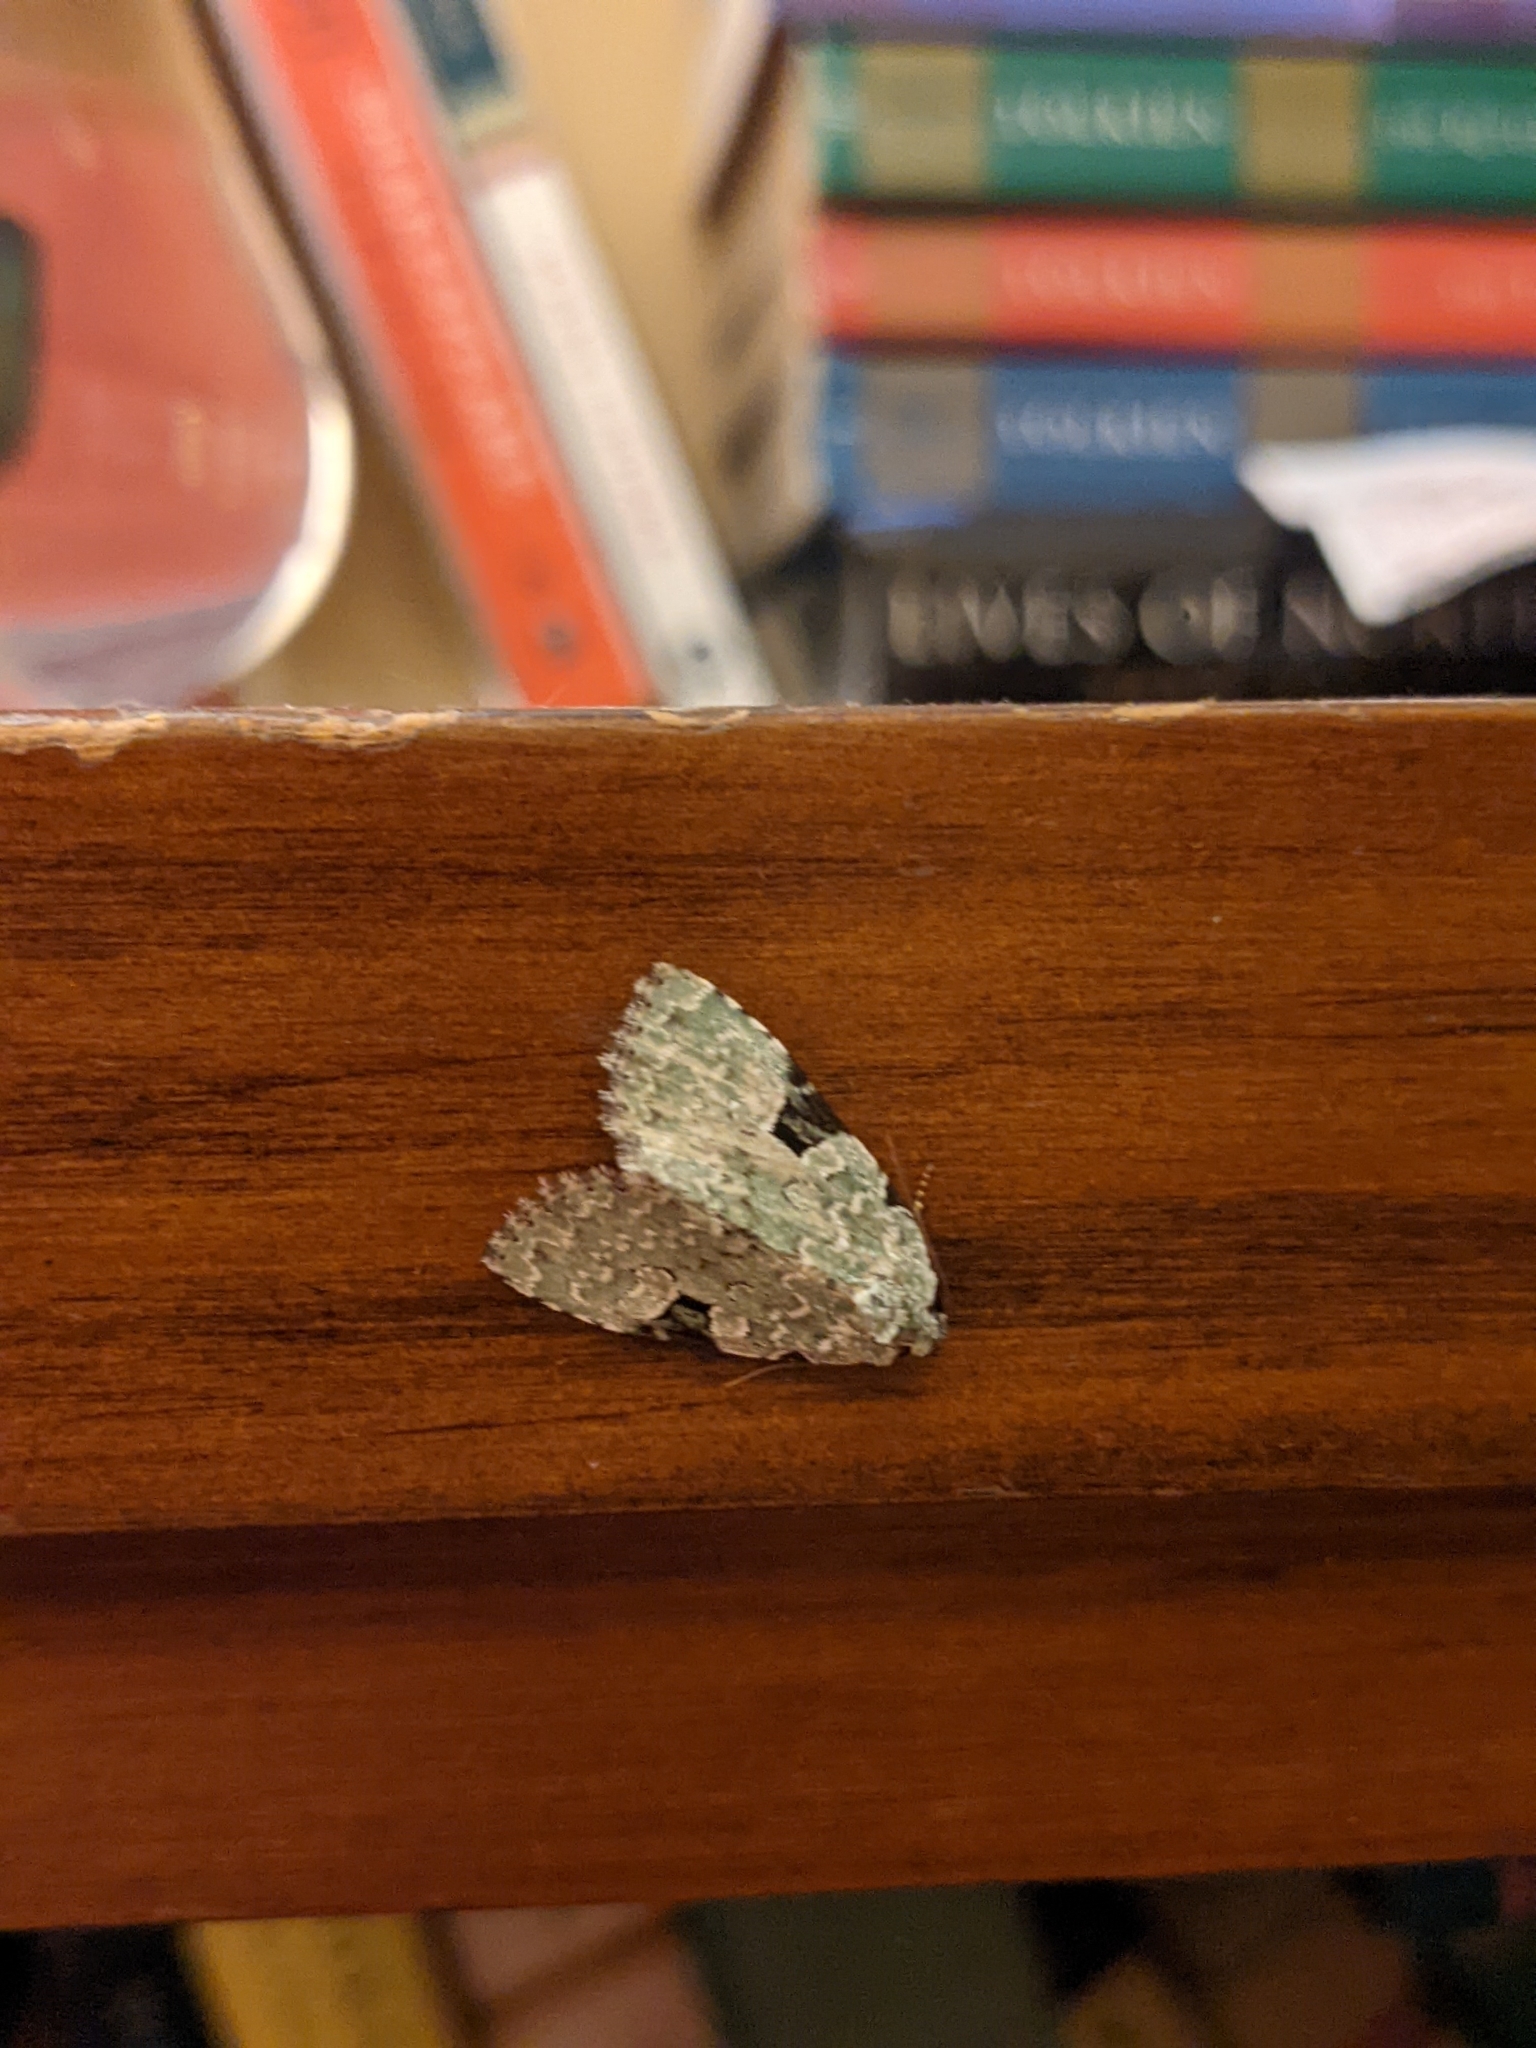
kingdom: Animalia
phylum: Arthropoda
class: Insecta
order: Lepidoptera
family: Noctuidae
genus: Leuconycta
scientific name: Leuconycta diphteroides
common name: Green leuconycta moth
